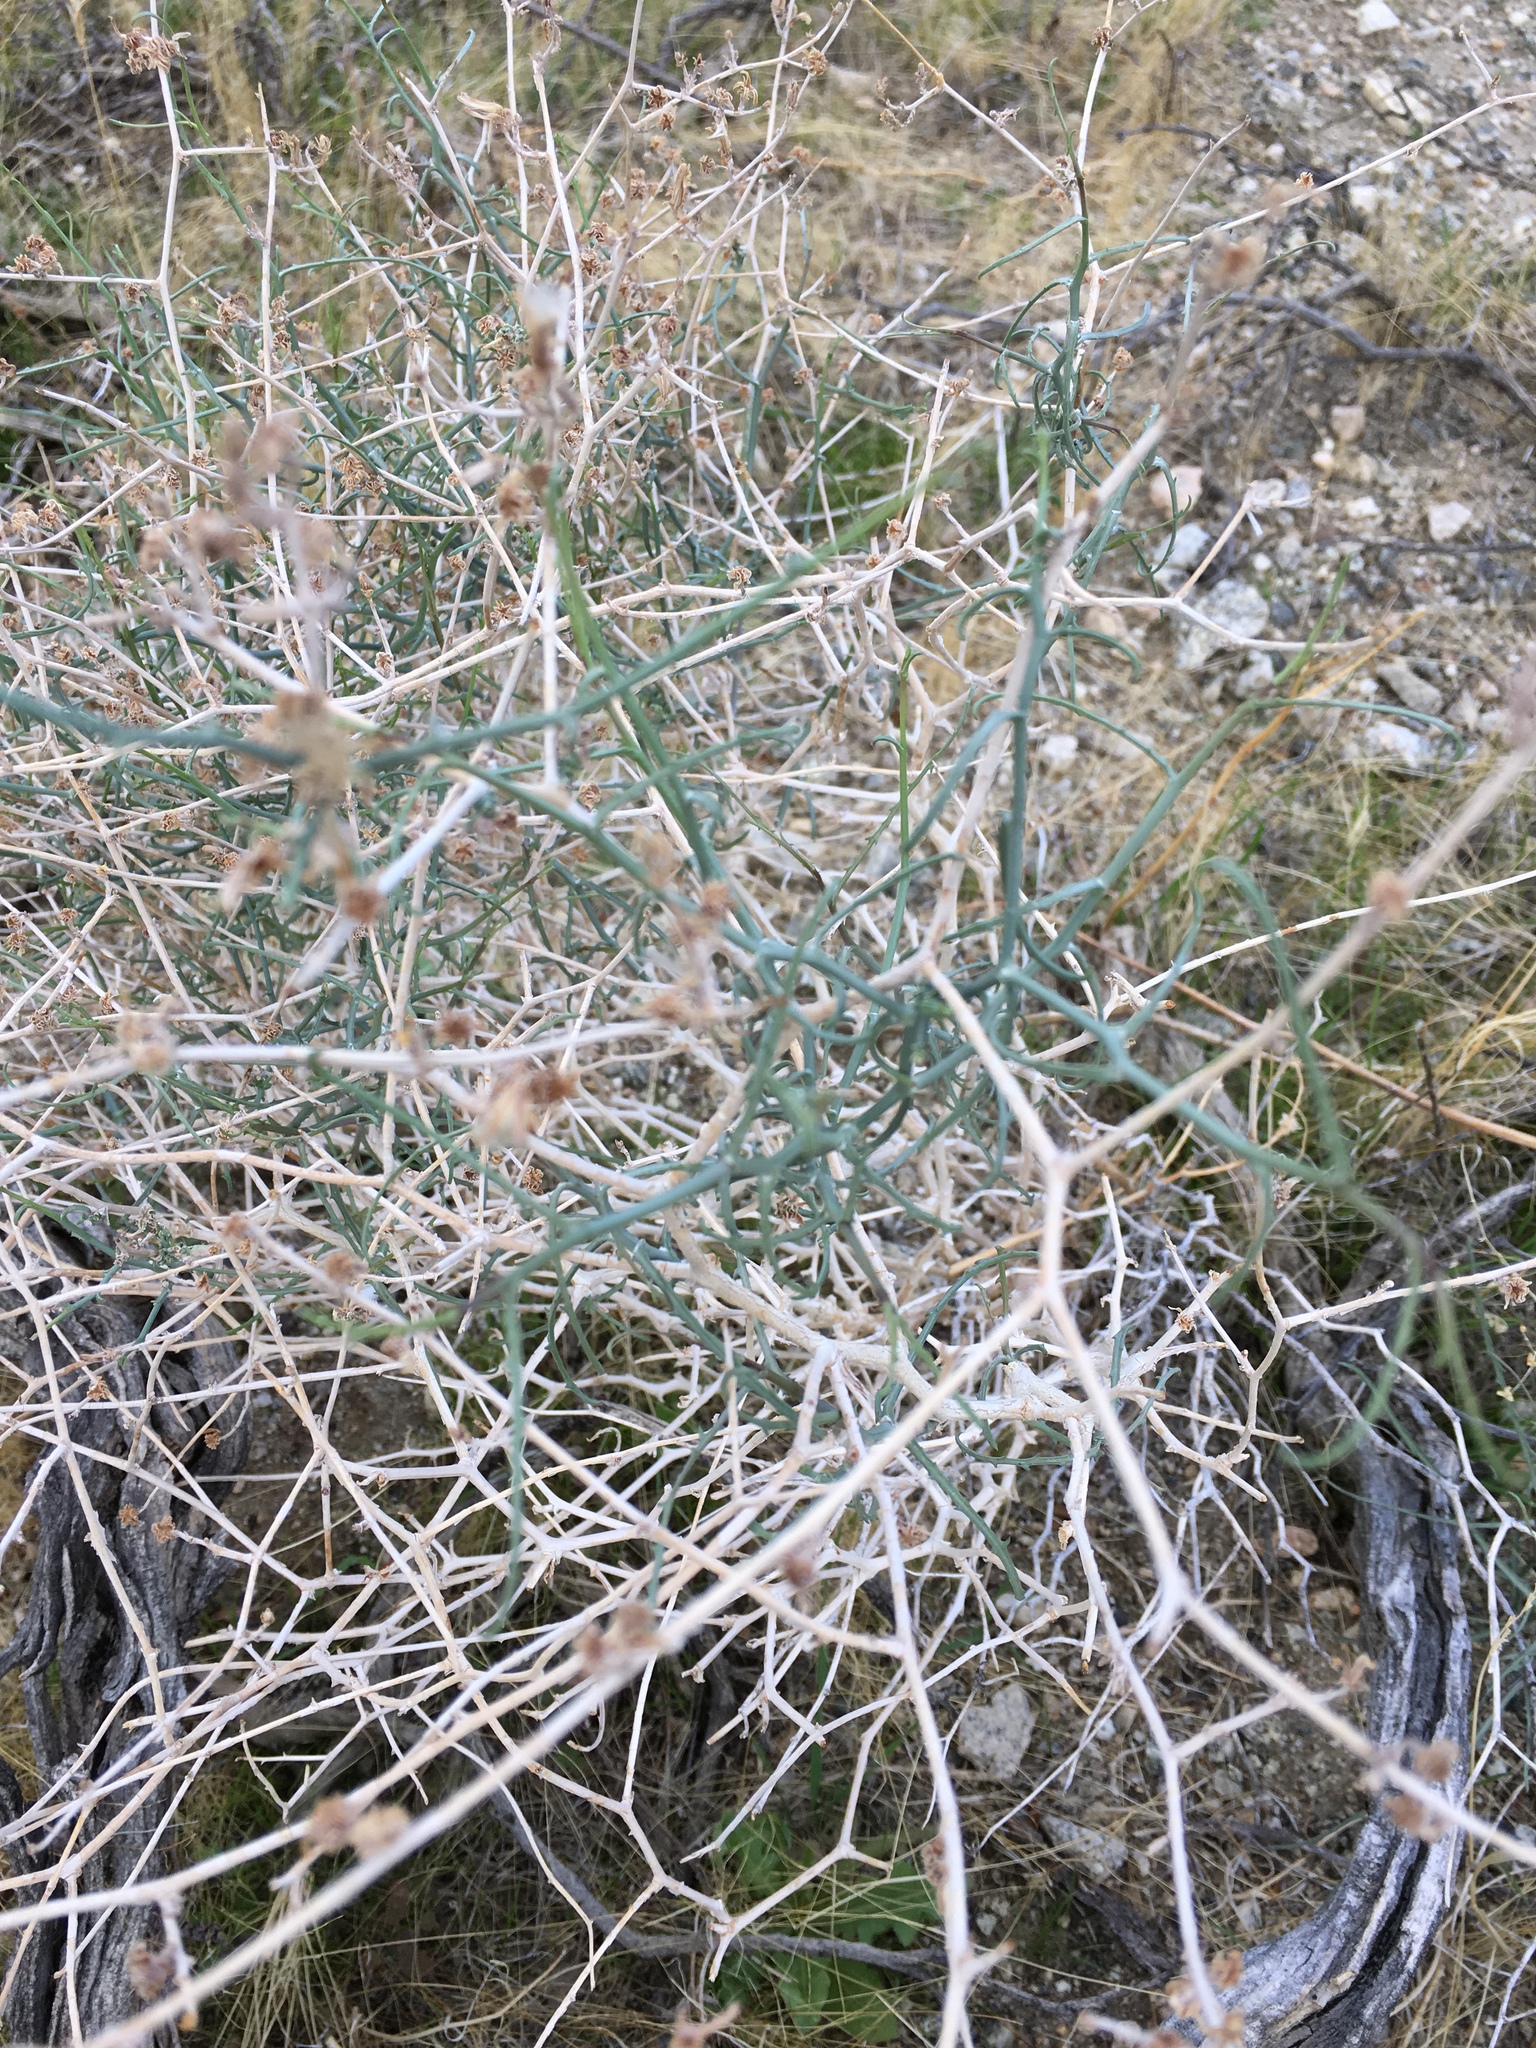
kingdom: Plantae
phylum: Tracheophyta
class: Magnoliopsida
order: Asterales
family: Asteraceae
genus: Stephanomeria
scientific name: Stephanomeria pauciflora
